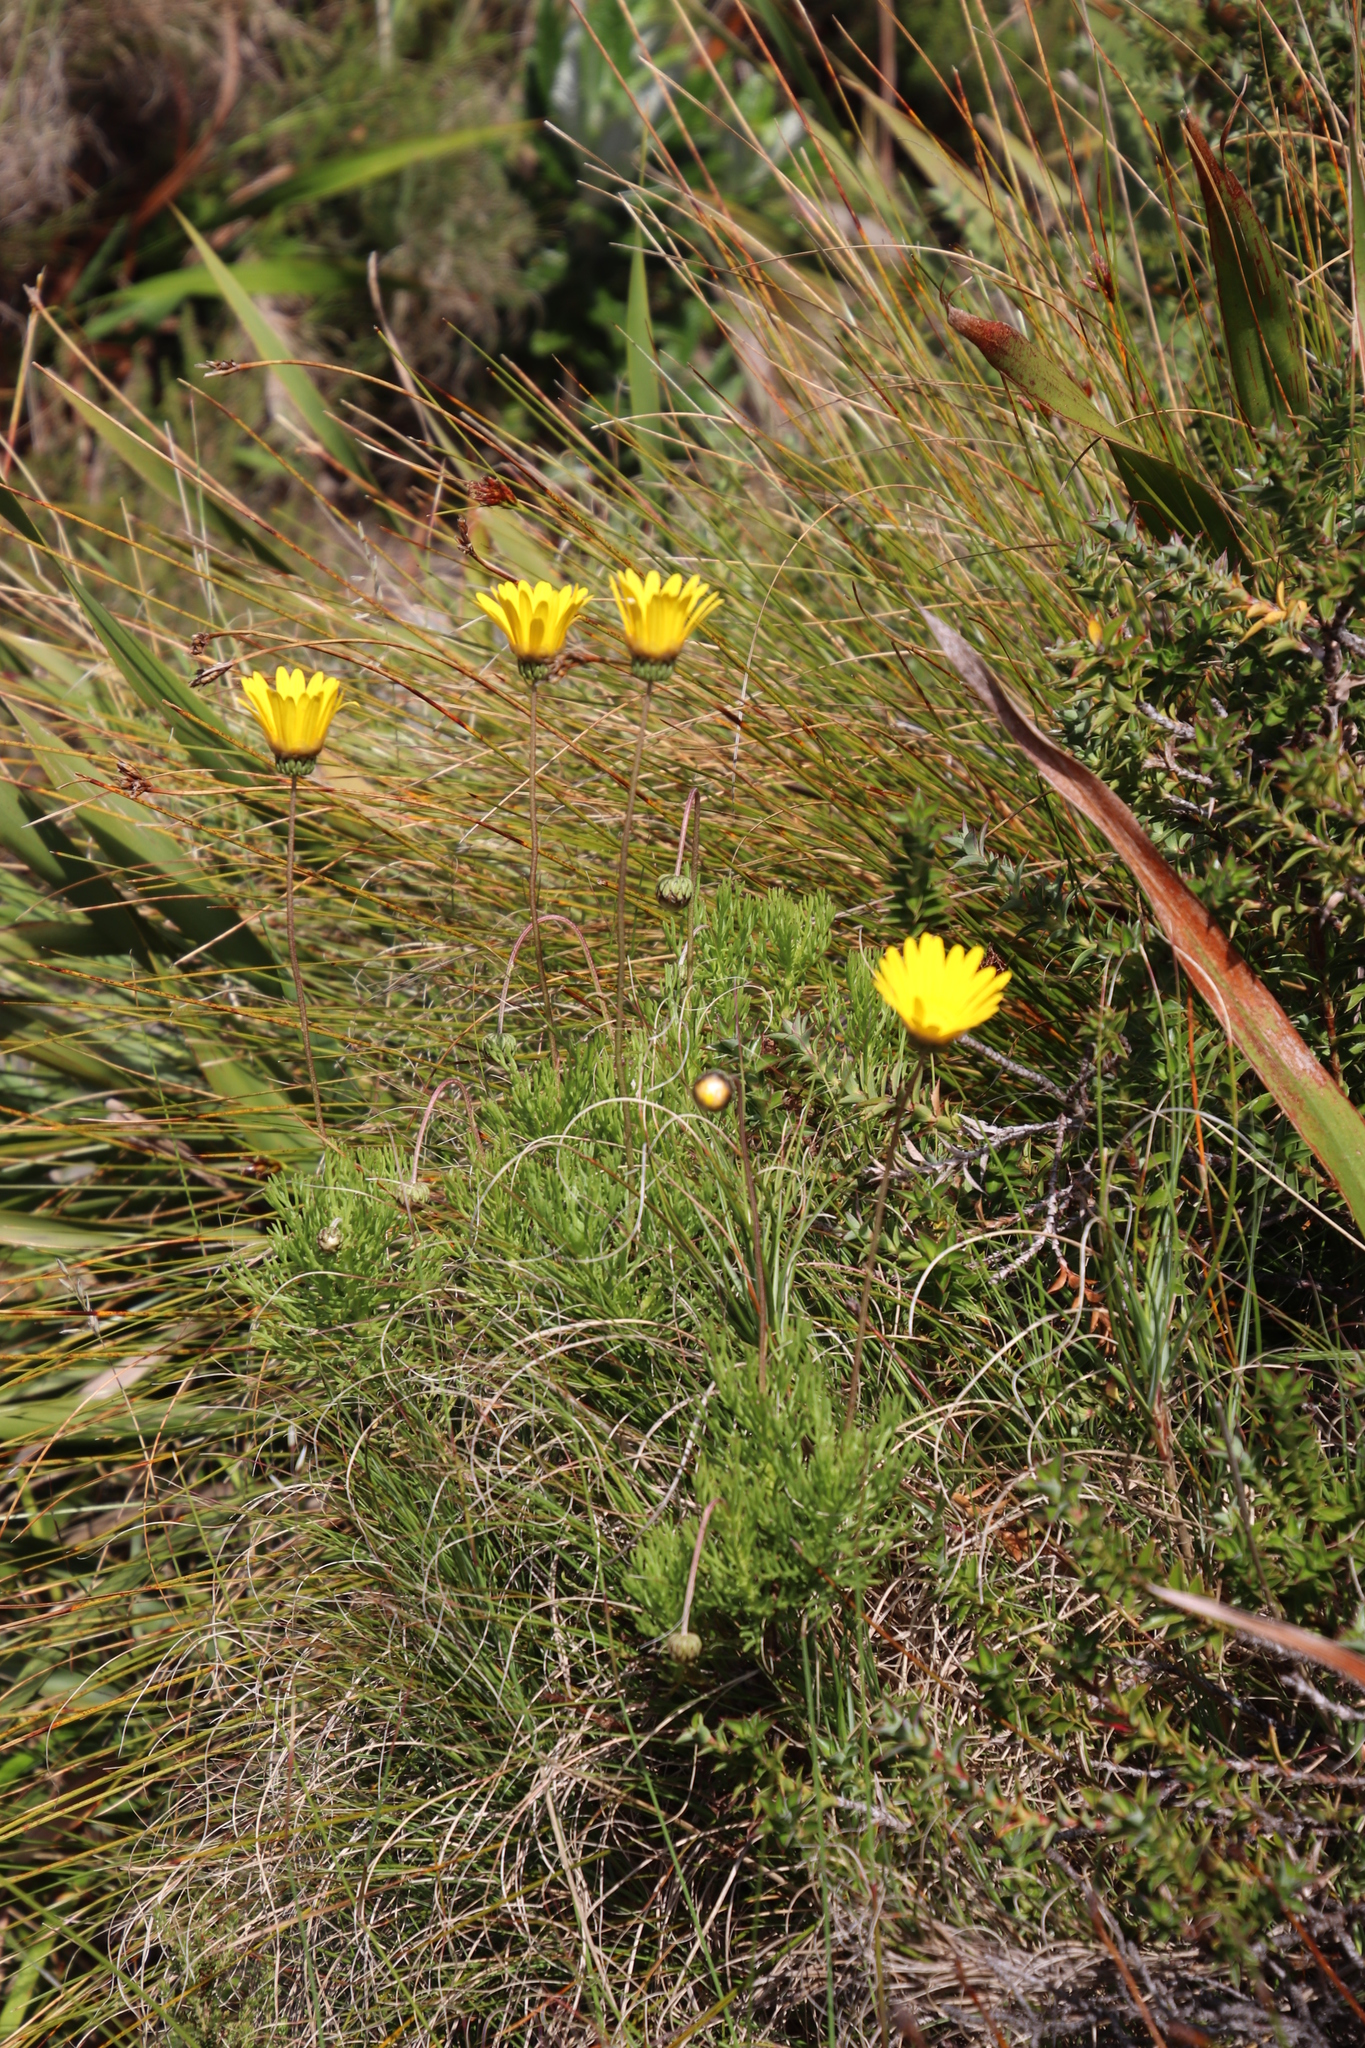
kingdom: Plantae
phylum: Tracheophyta
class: Magnoliopsida
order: Asterales
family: Asteraceae
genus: Euryops
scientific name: Euryops abrotanifolius
